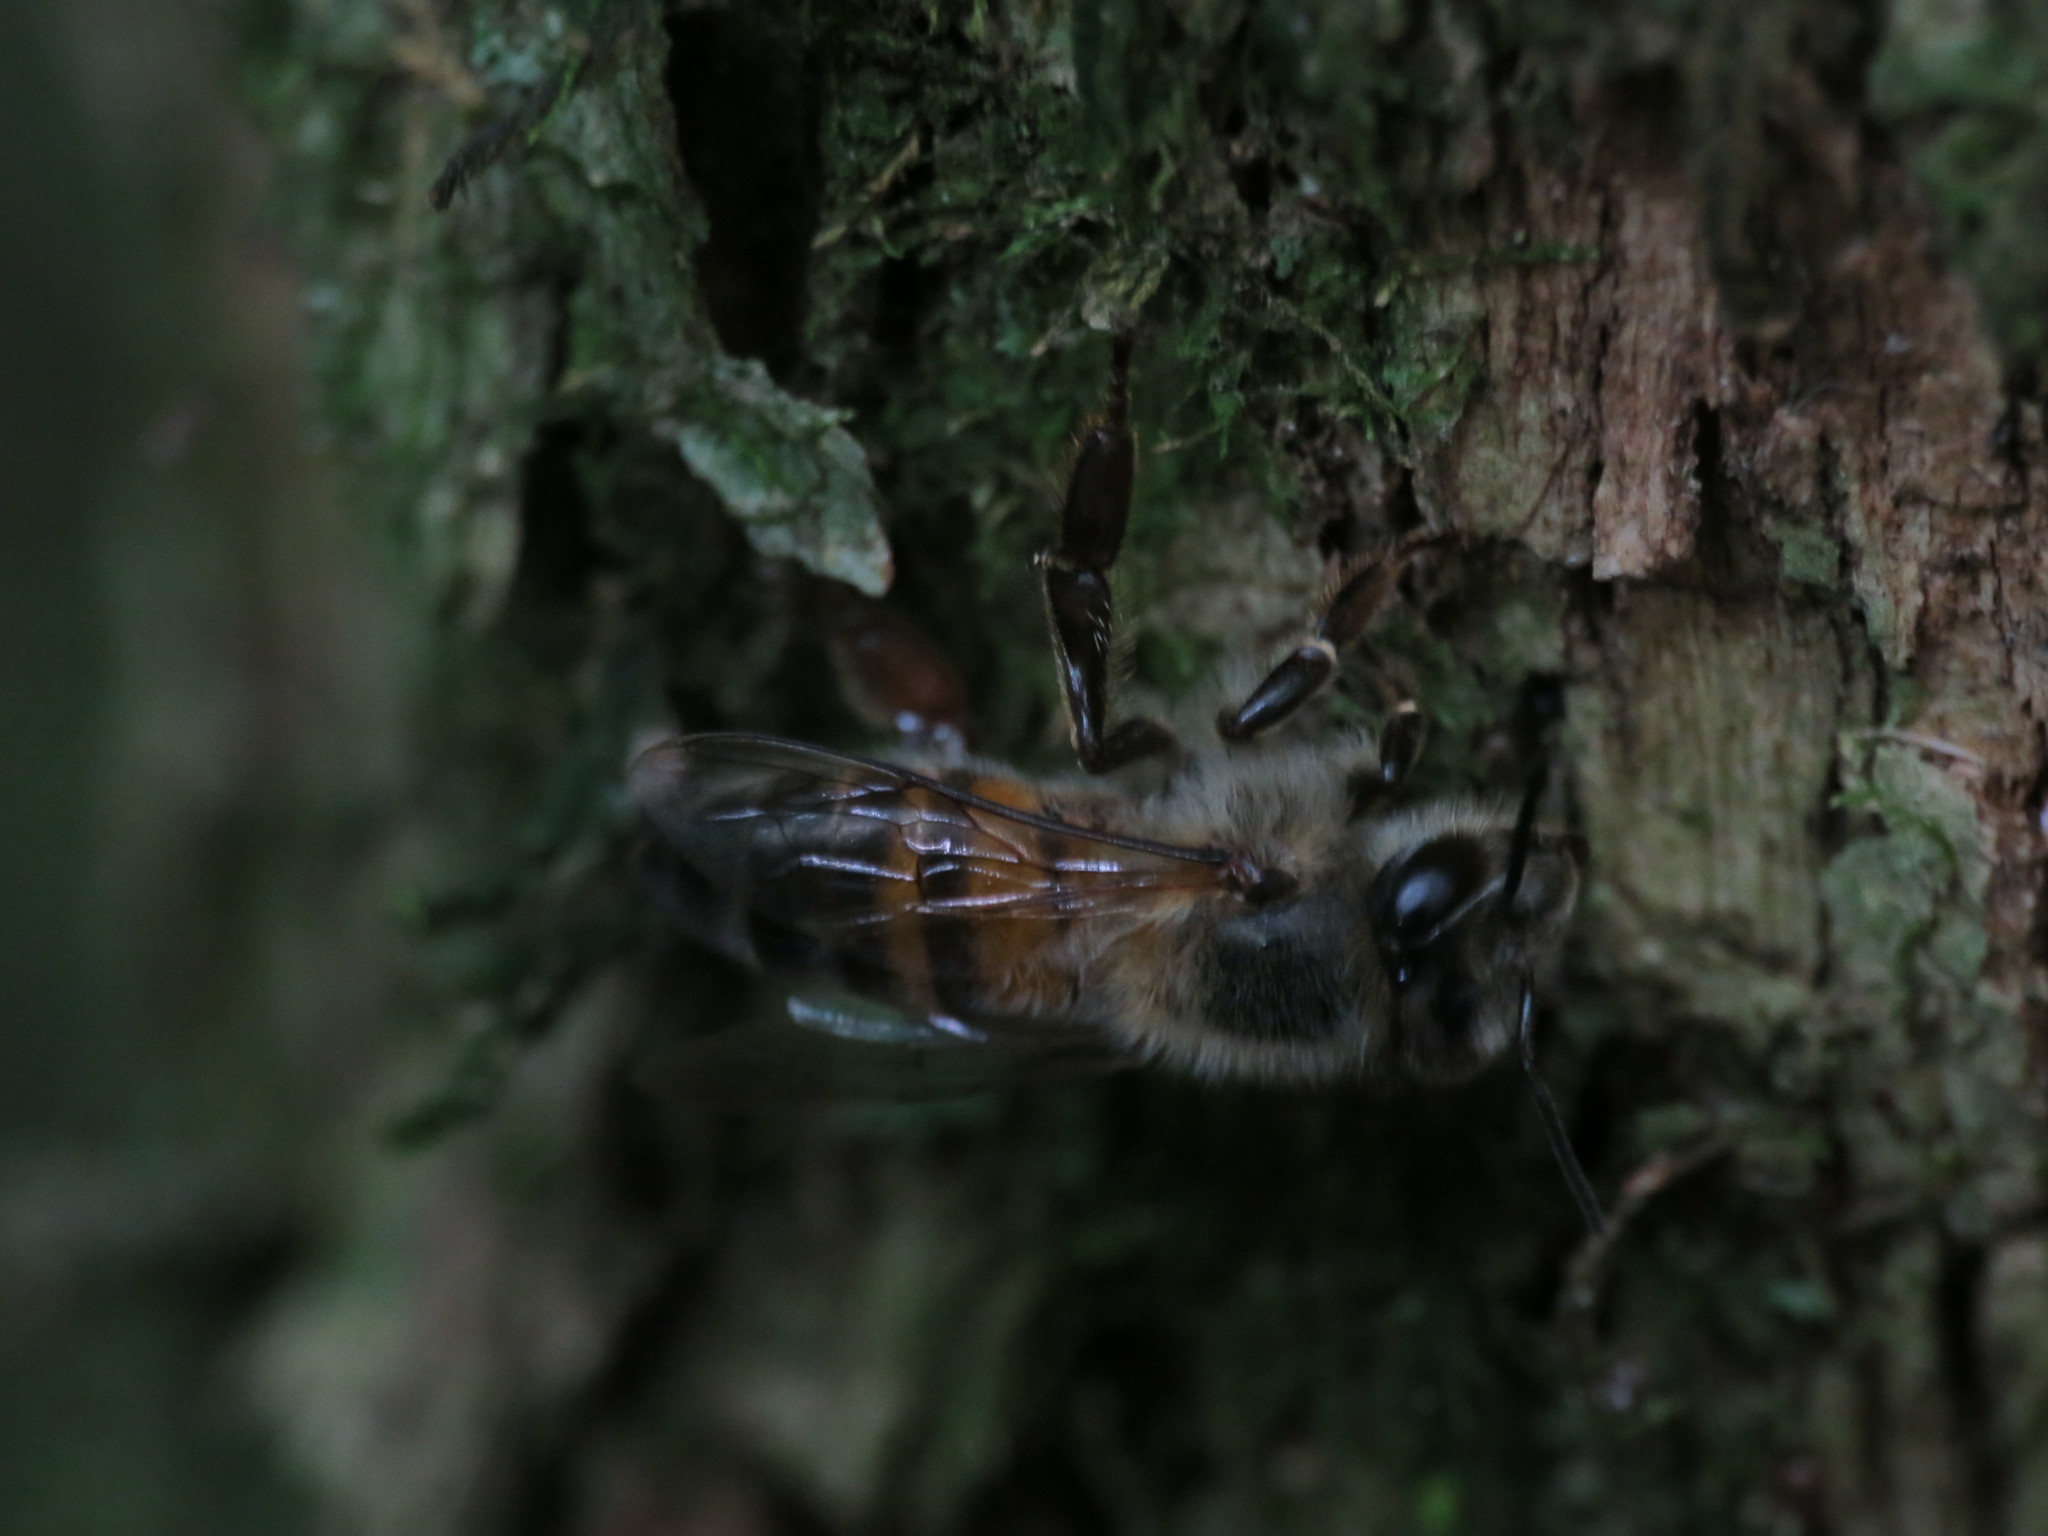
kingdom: Animalia
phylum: Arthropoda
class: Insecta
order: Hymenoptera
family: Apidae
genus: Apis
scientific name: Apis mellifera
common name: Honey bee
